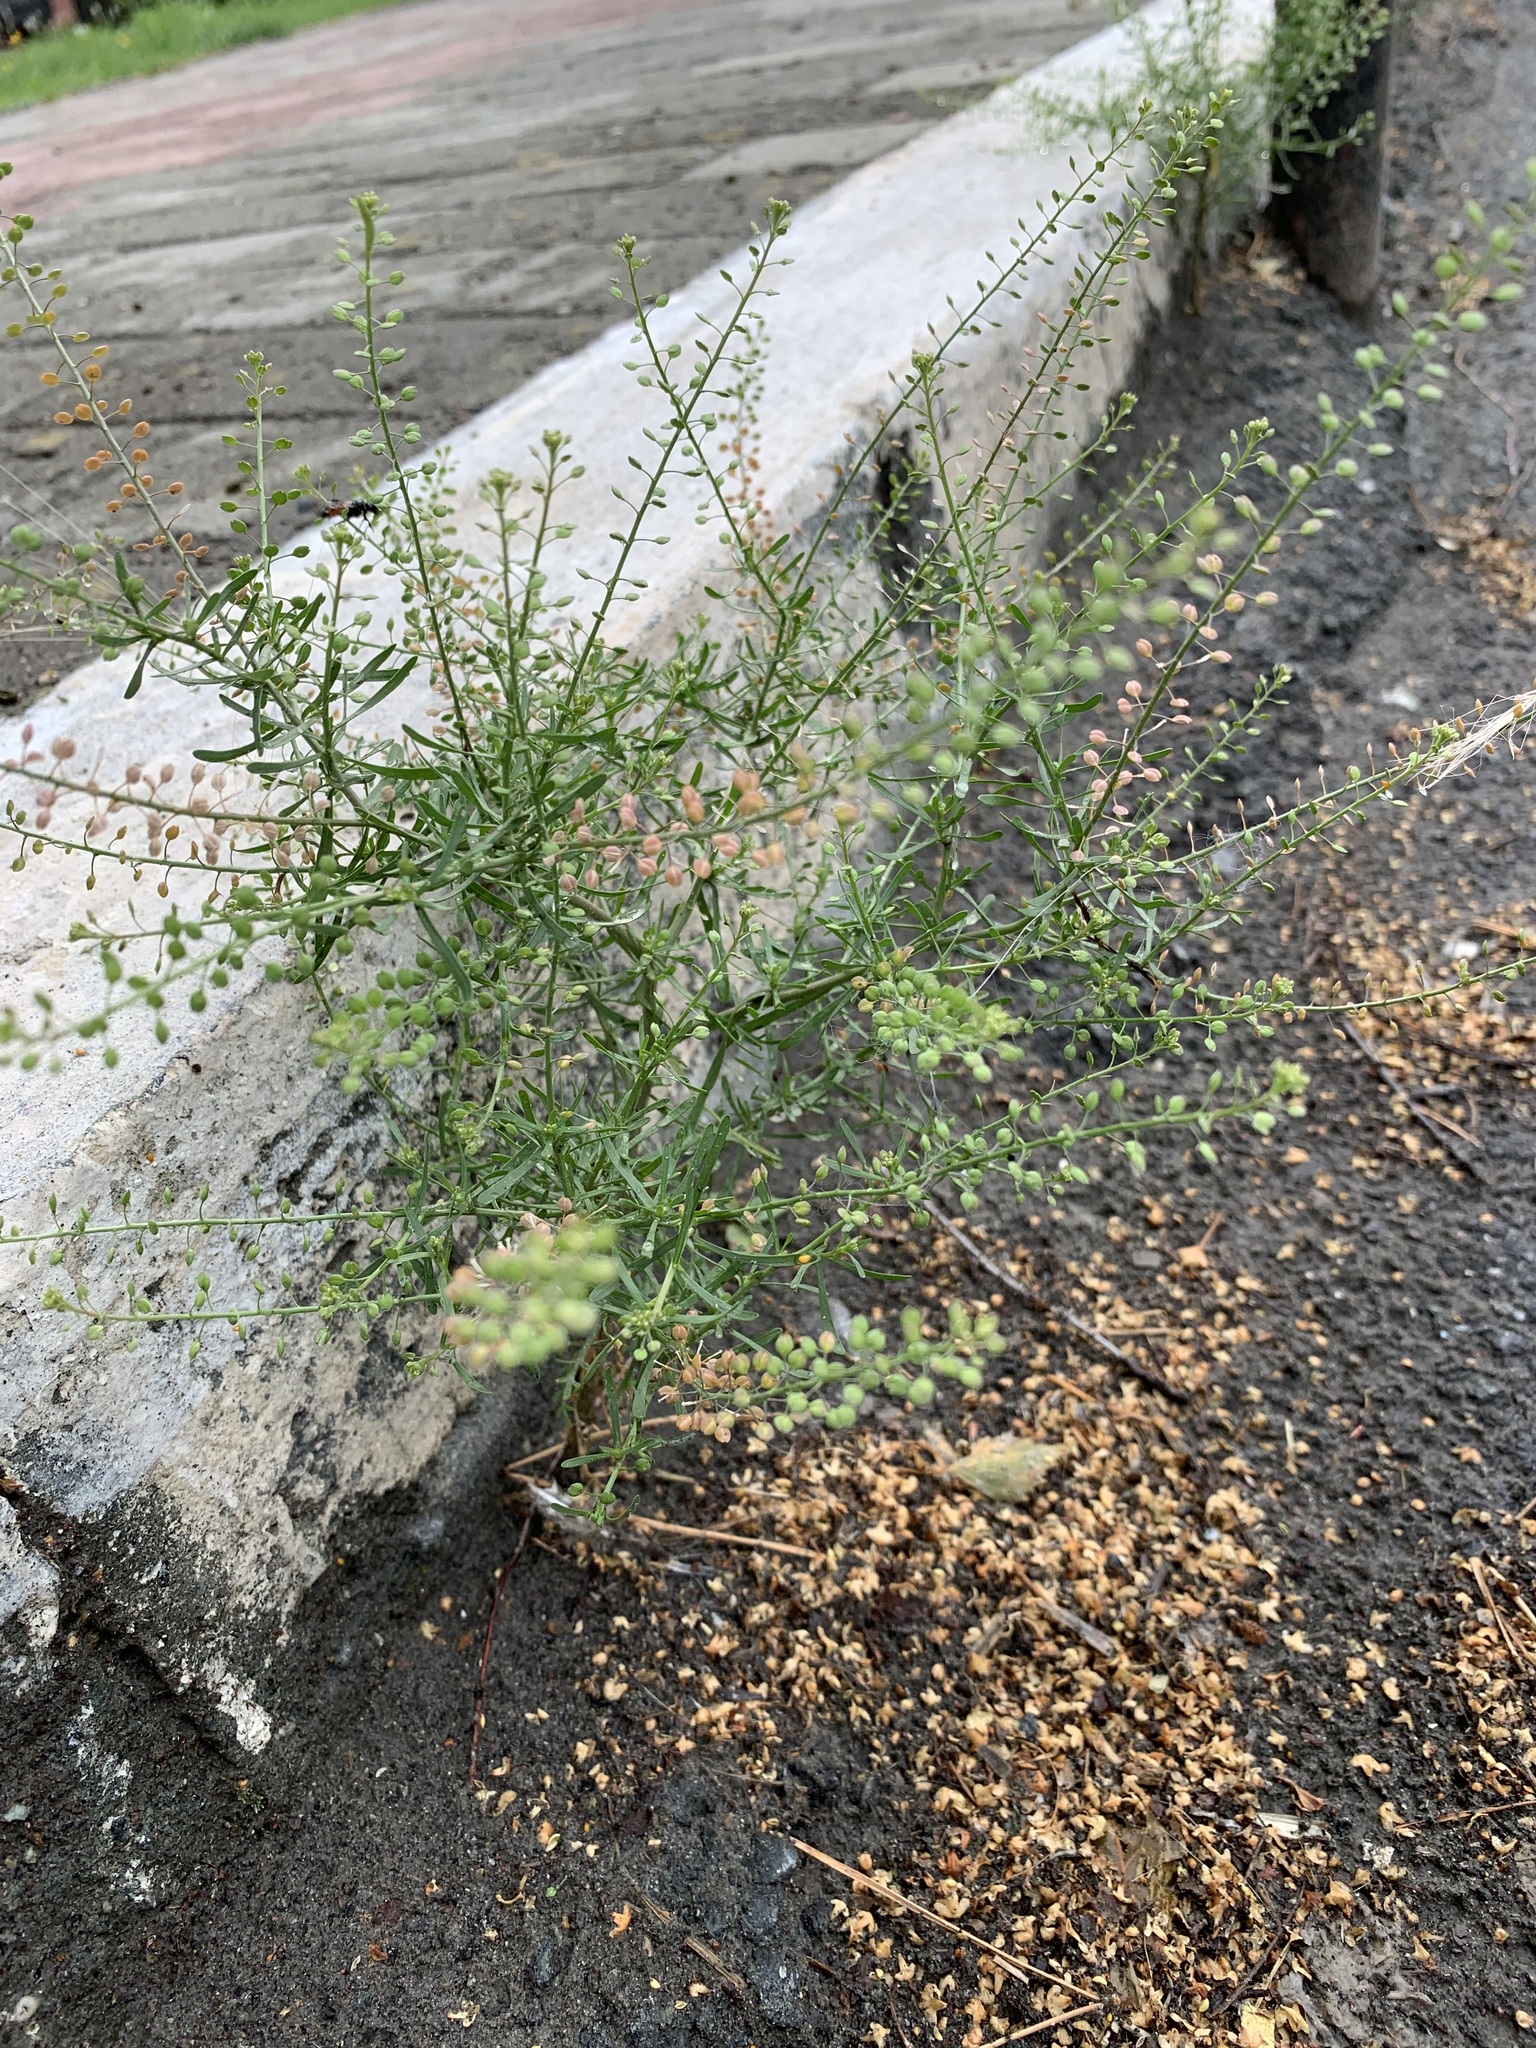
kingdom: Plantae
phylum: Tracheophyta
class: Magnoliopsida
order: Brassicales
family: Brassicaceae
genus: Lepidium
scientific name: Lepidium densiflorum
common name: Miner's pepperwort
